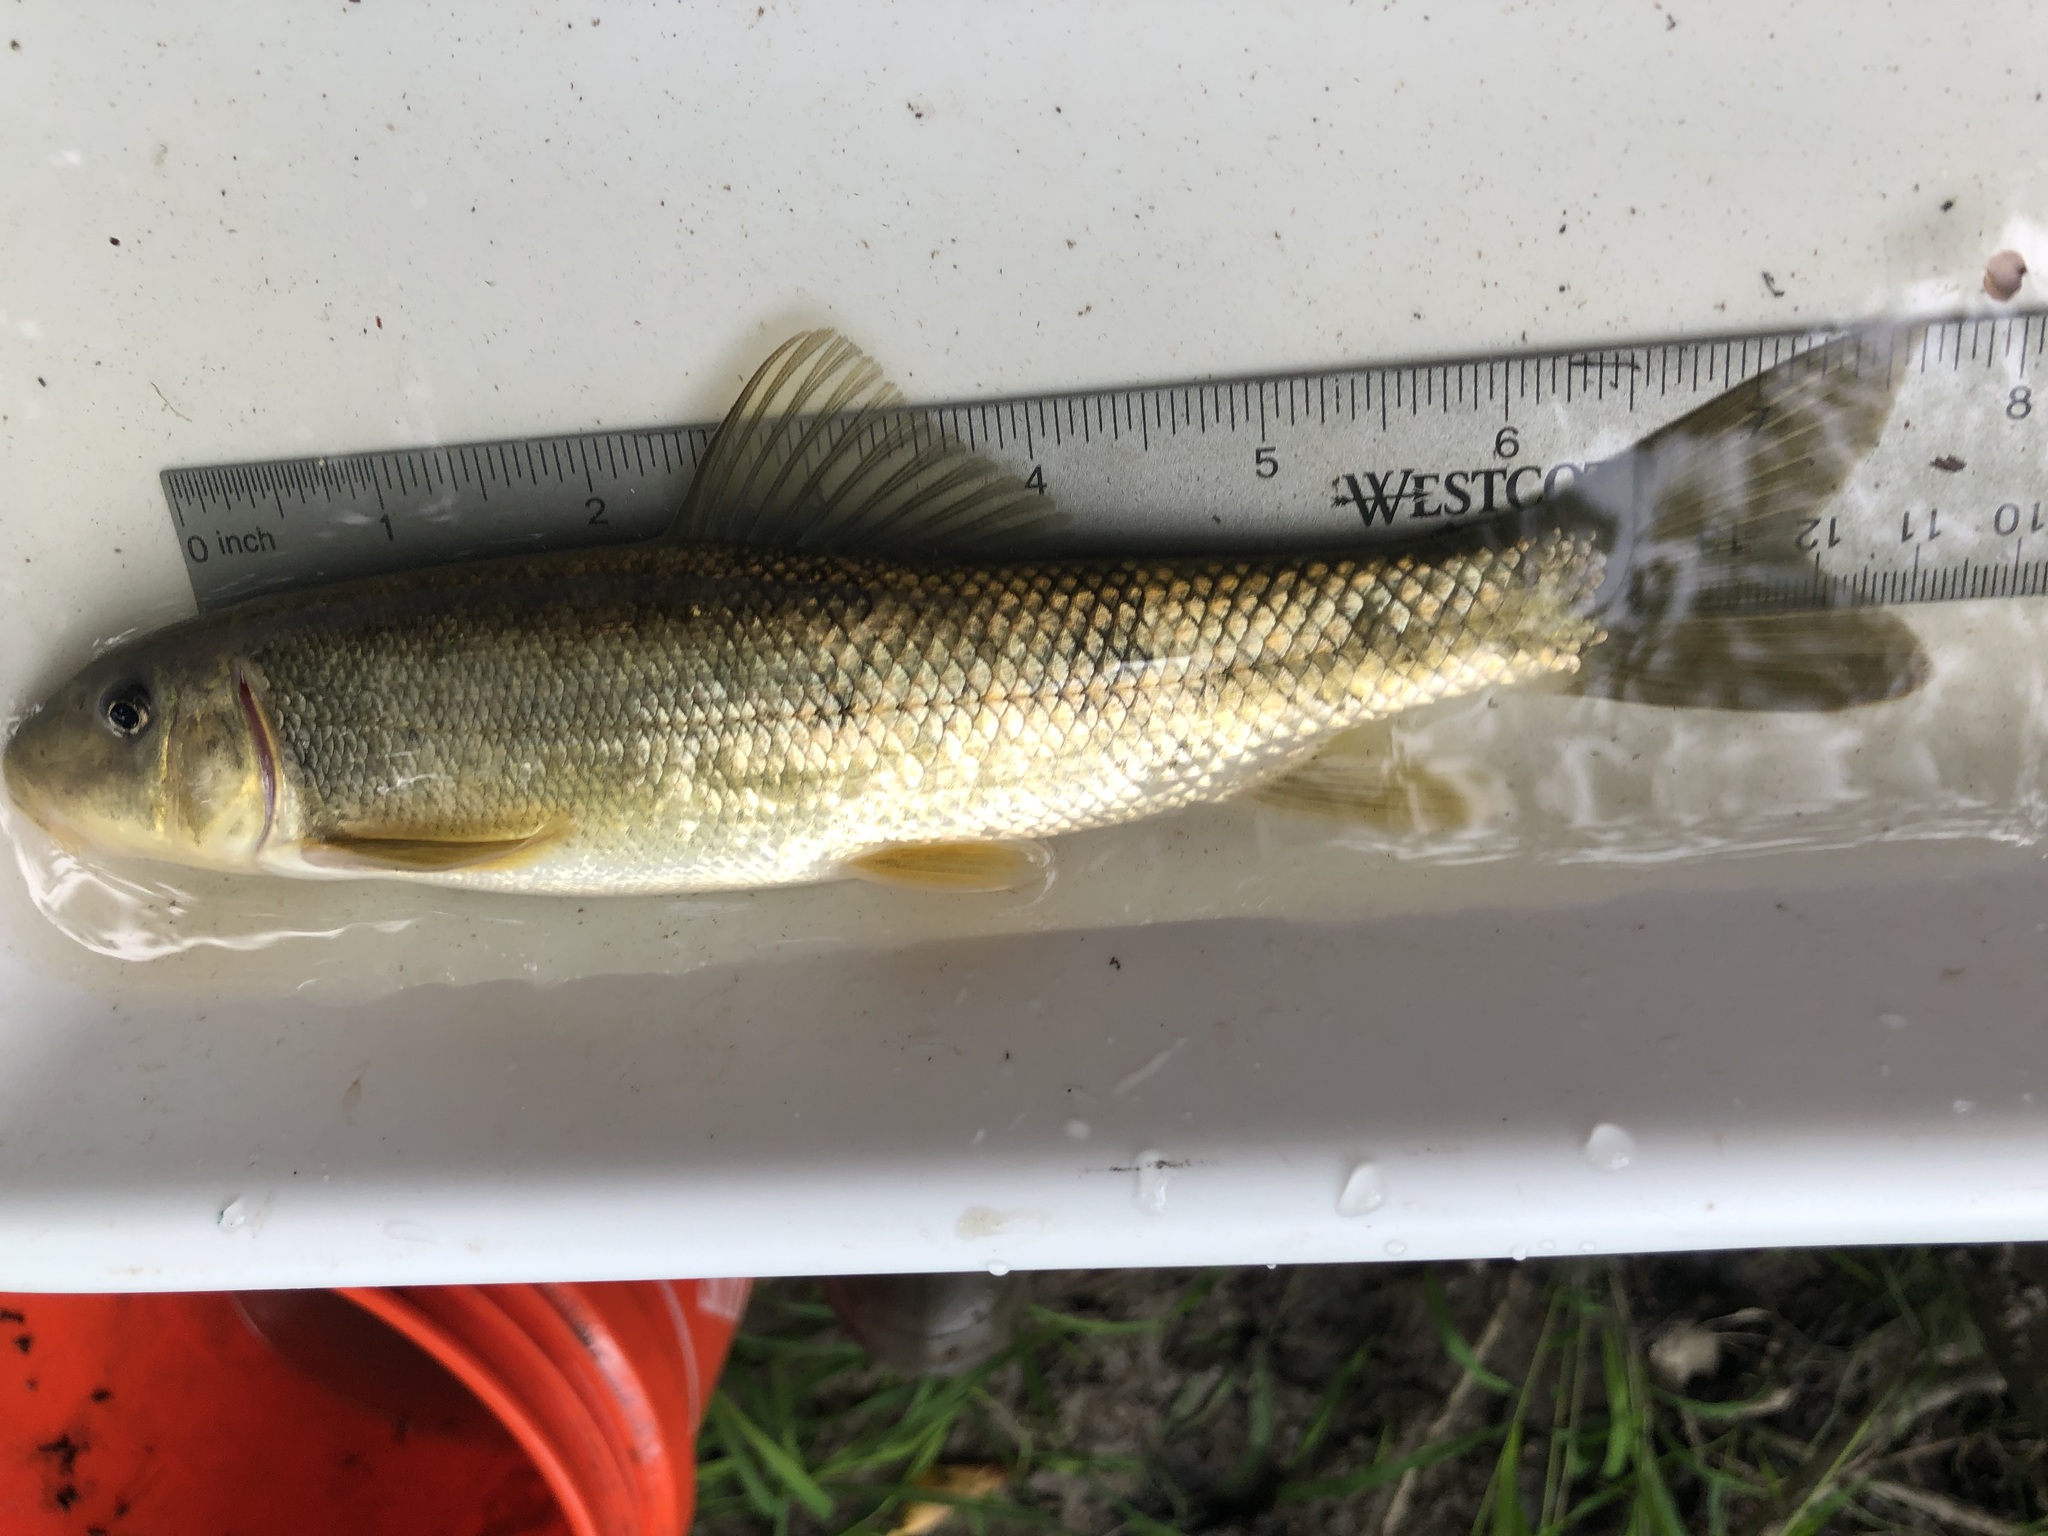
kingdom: Animalia
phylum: Chordata
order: Cypriniformes
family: Catostomidae
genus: Catostomus
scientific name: Catostomus commersonii
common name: White sucker
